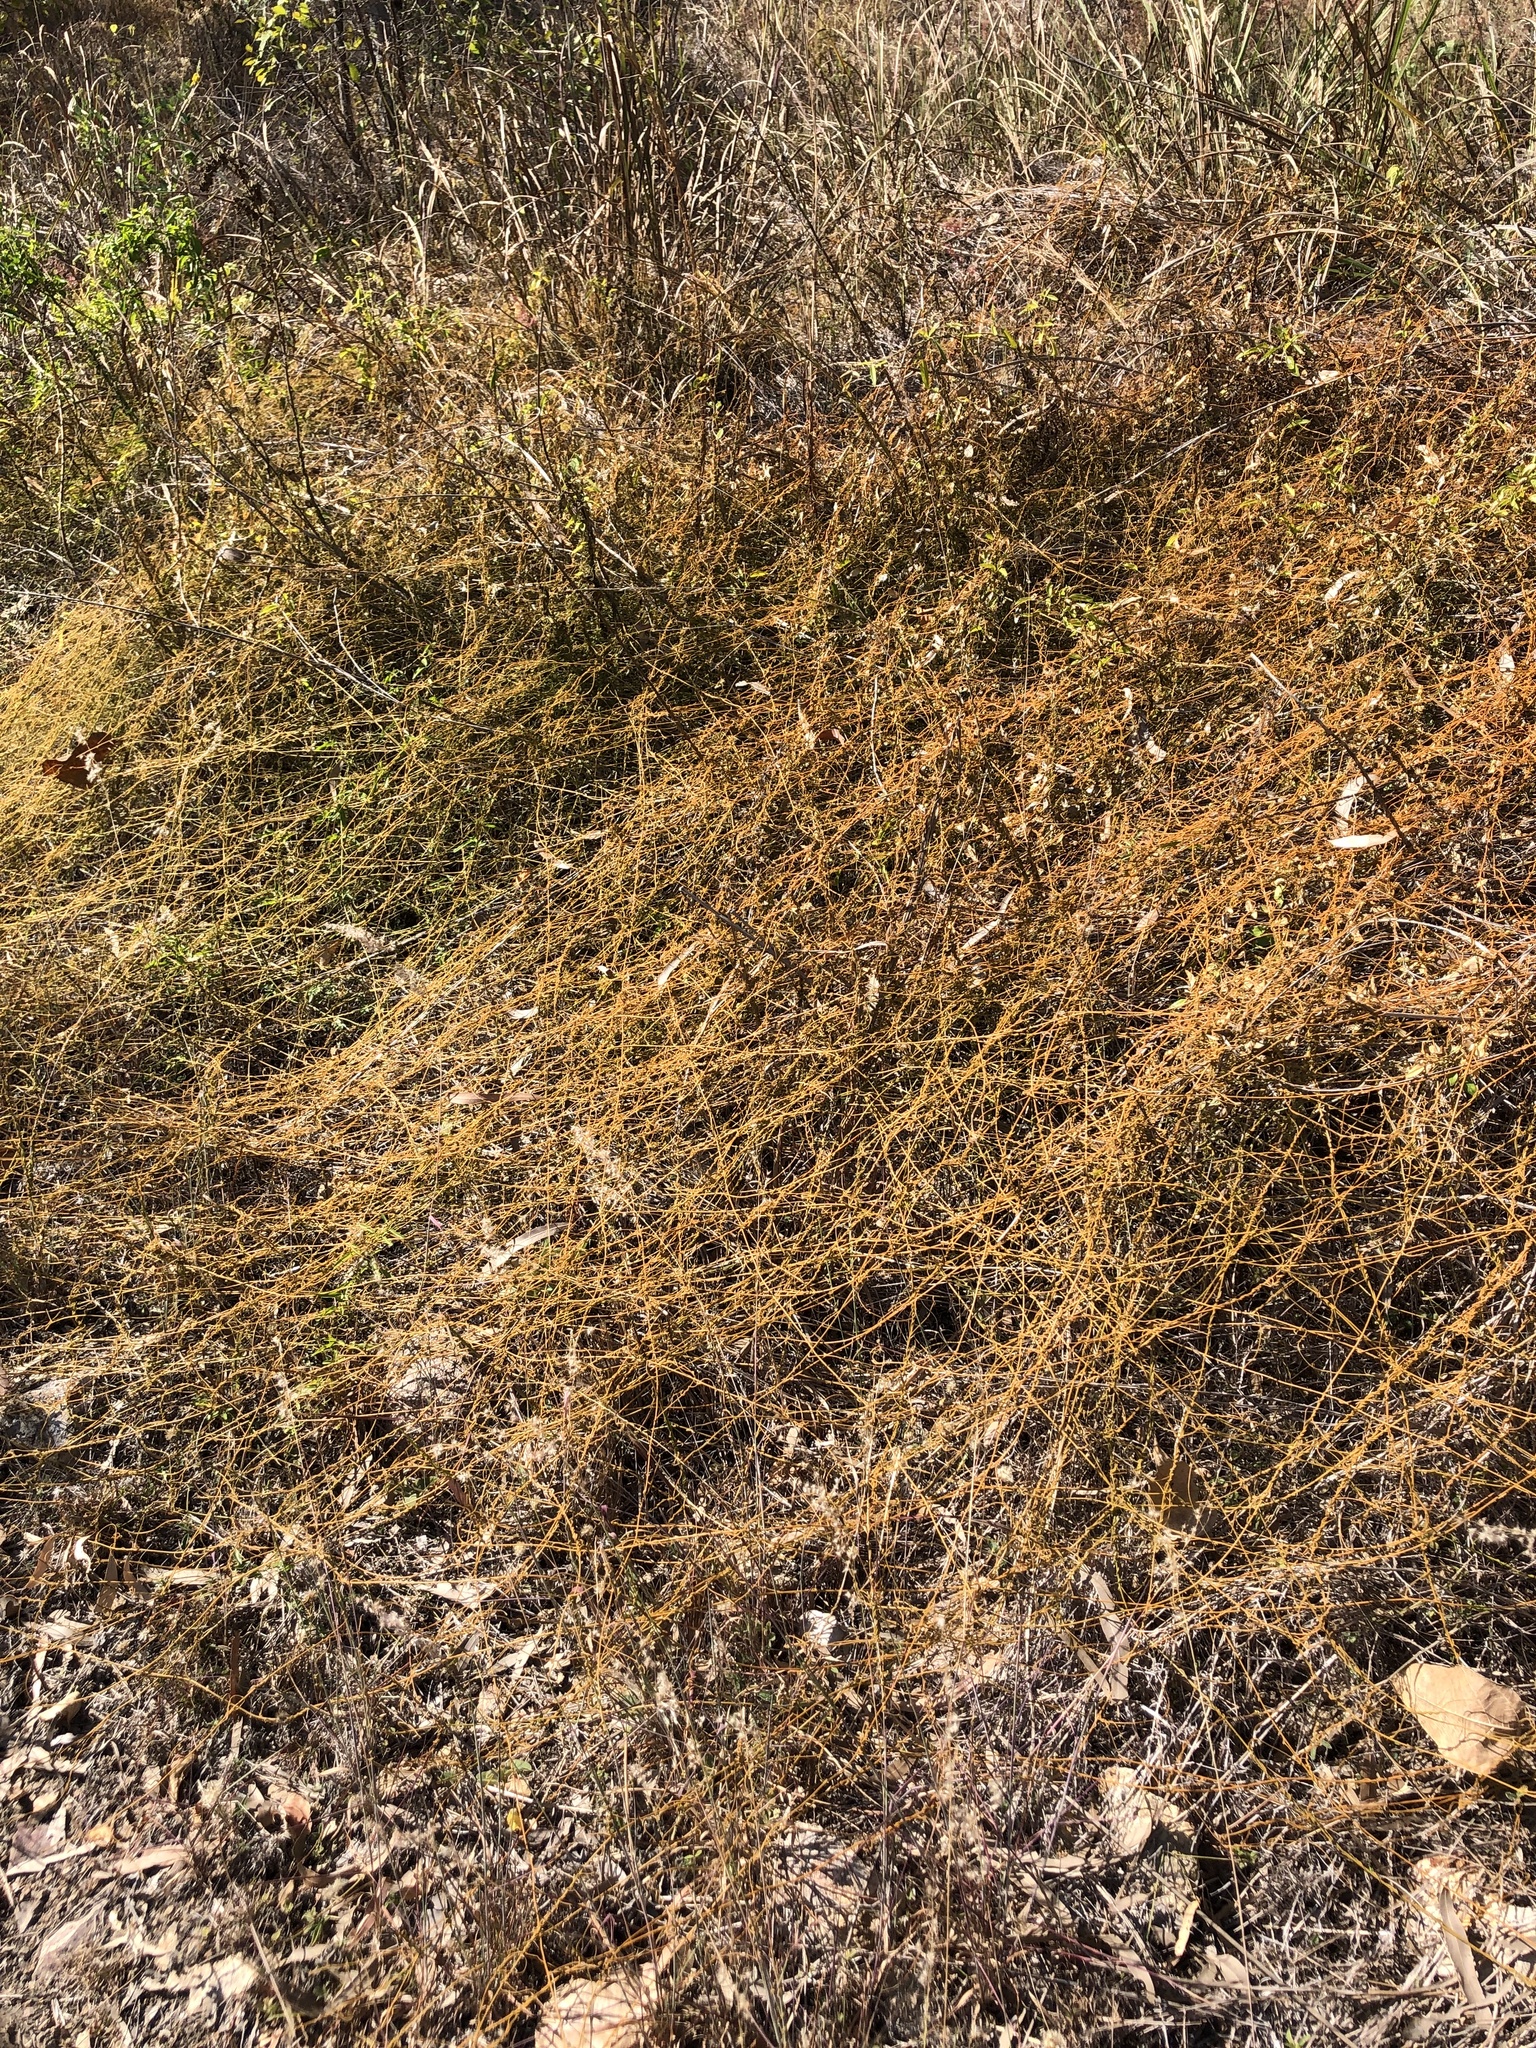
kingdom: Plantae
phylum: Tracheophyta
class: Magnoliopsida
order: Laurales
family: Lauraceae
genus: Cassytha
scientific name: Cassytha filiformis
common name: Dodder-laurel
